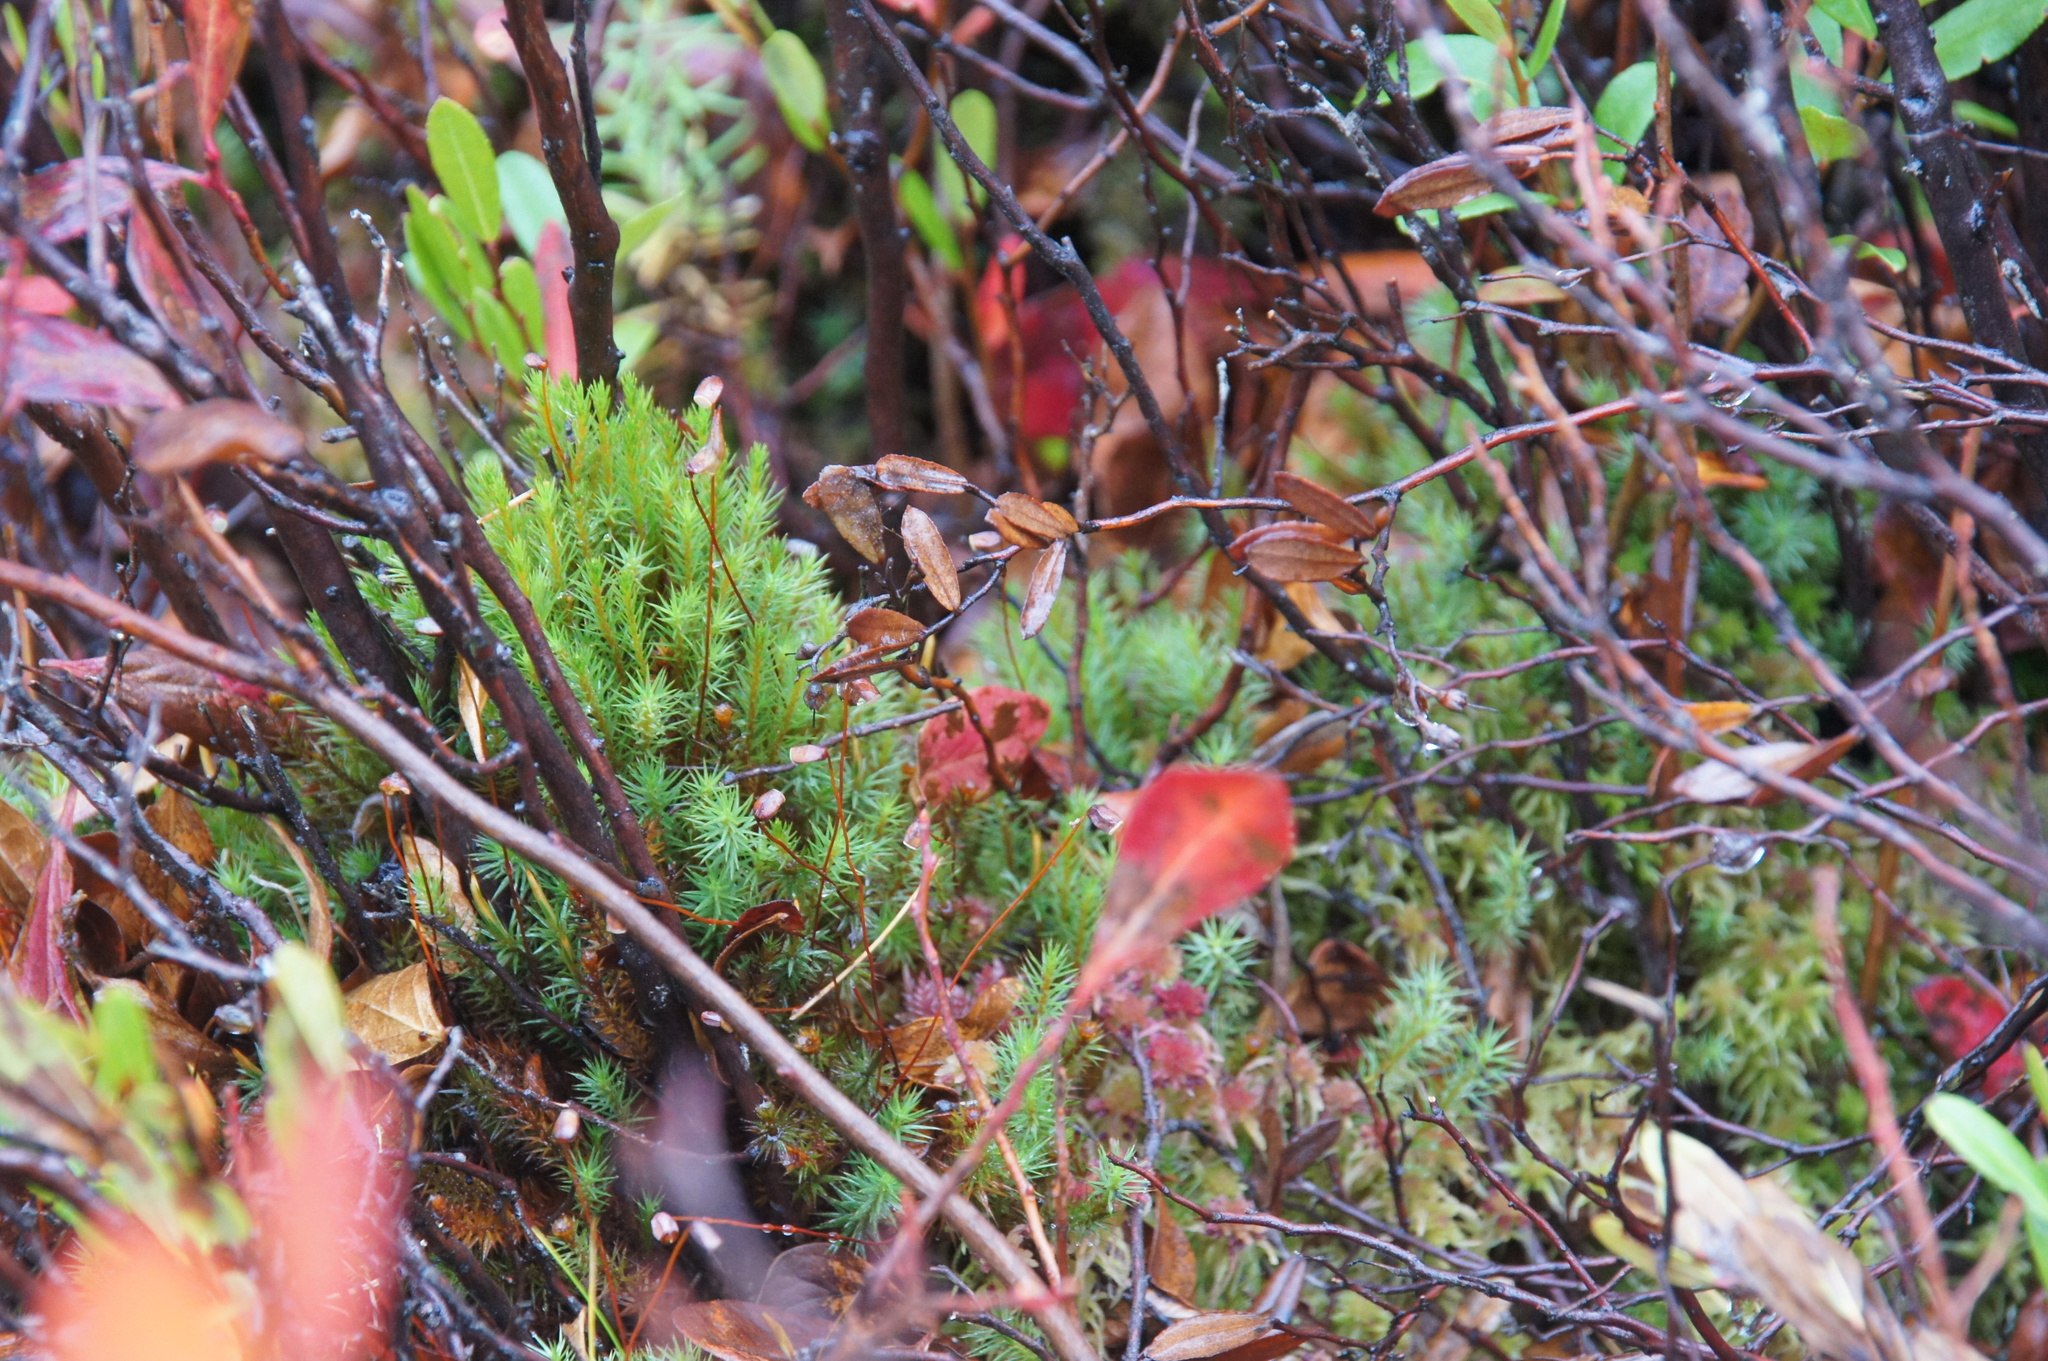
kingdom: Plantae
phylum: Tracheophyta
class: Magnoliopsida
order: Ericales
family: Ericaceae
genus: Chamaedaphne
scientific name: Chamaedaphne calyculata
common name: Leatherleaf
